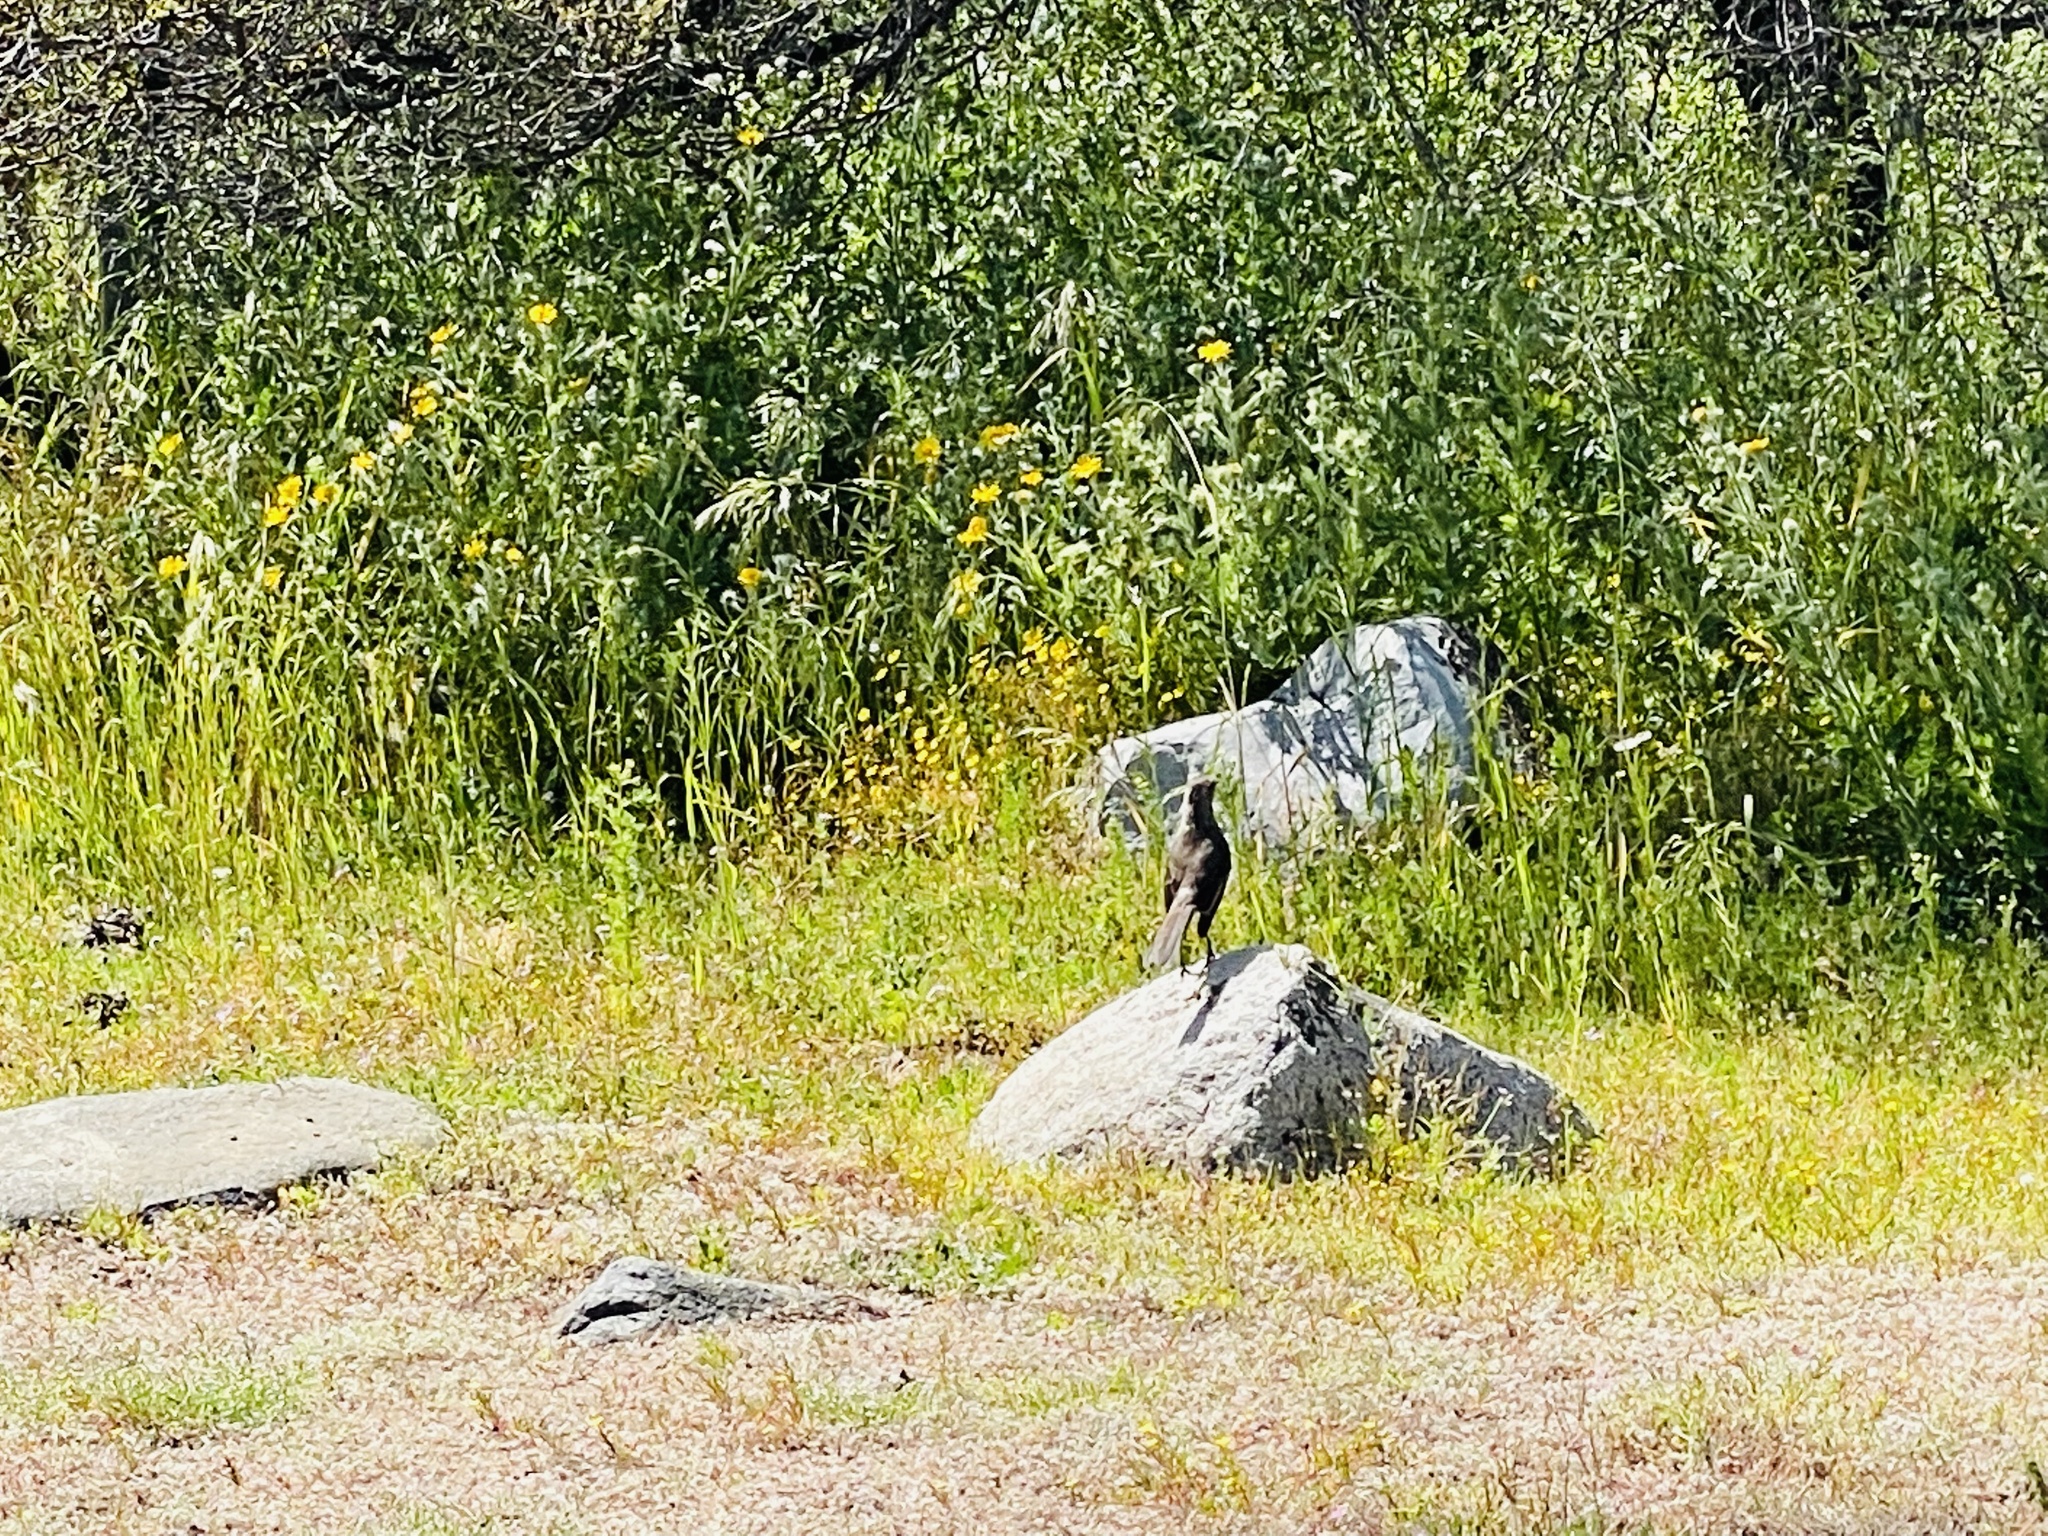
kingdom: Animalia
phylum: Chordata
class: Aves
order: Passeriformes
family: Mimidae
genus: Mimus
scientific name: Mimus thenca
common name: Chilean mockingbird
